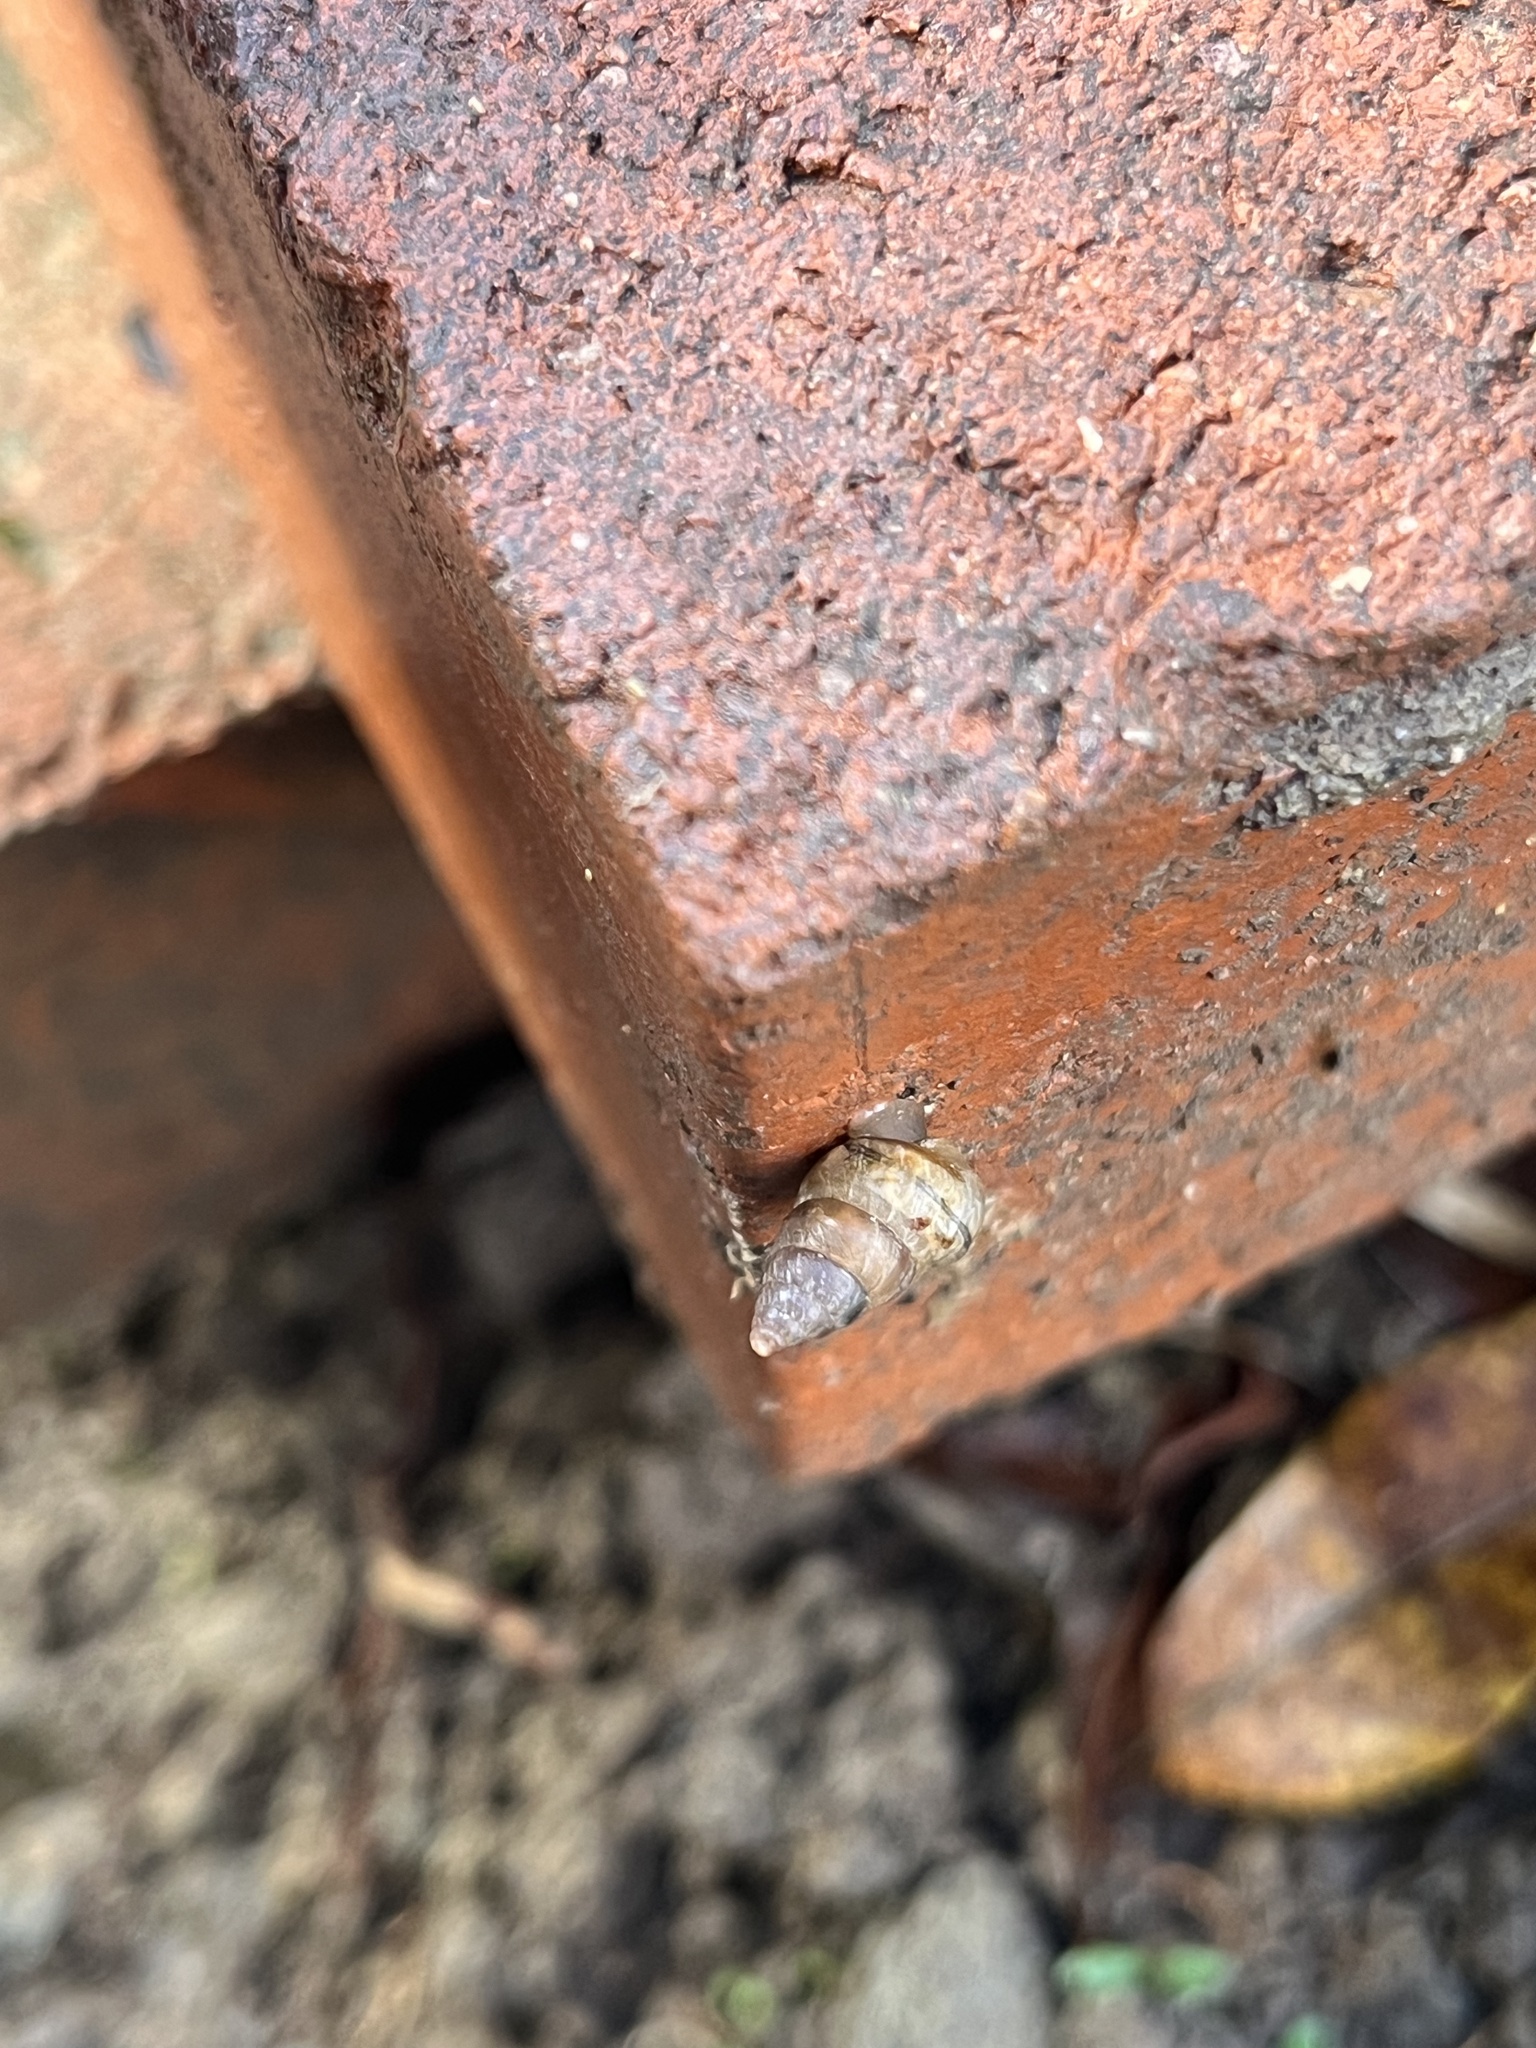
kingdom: Animalia
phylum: Mollusca
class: Gastropoda
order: Stylommatophora
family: Geomitridae
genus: Cochlicella
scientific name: Cochlicella barbara
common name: Potbellied helicellid
